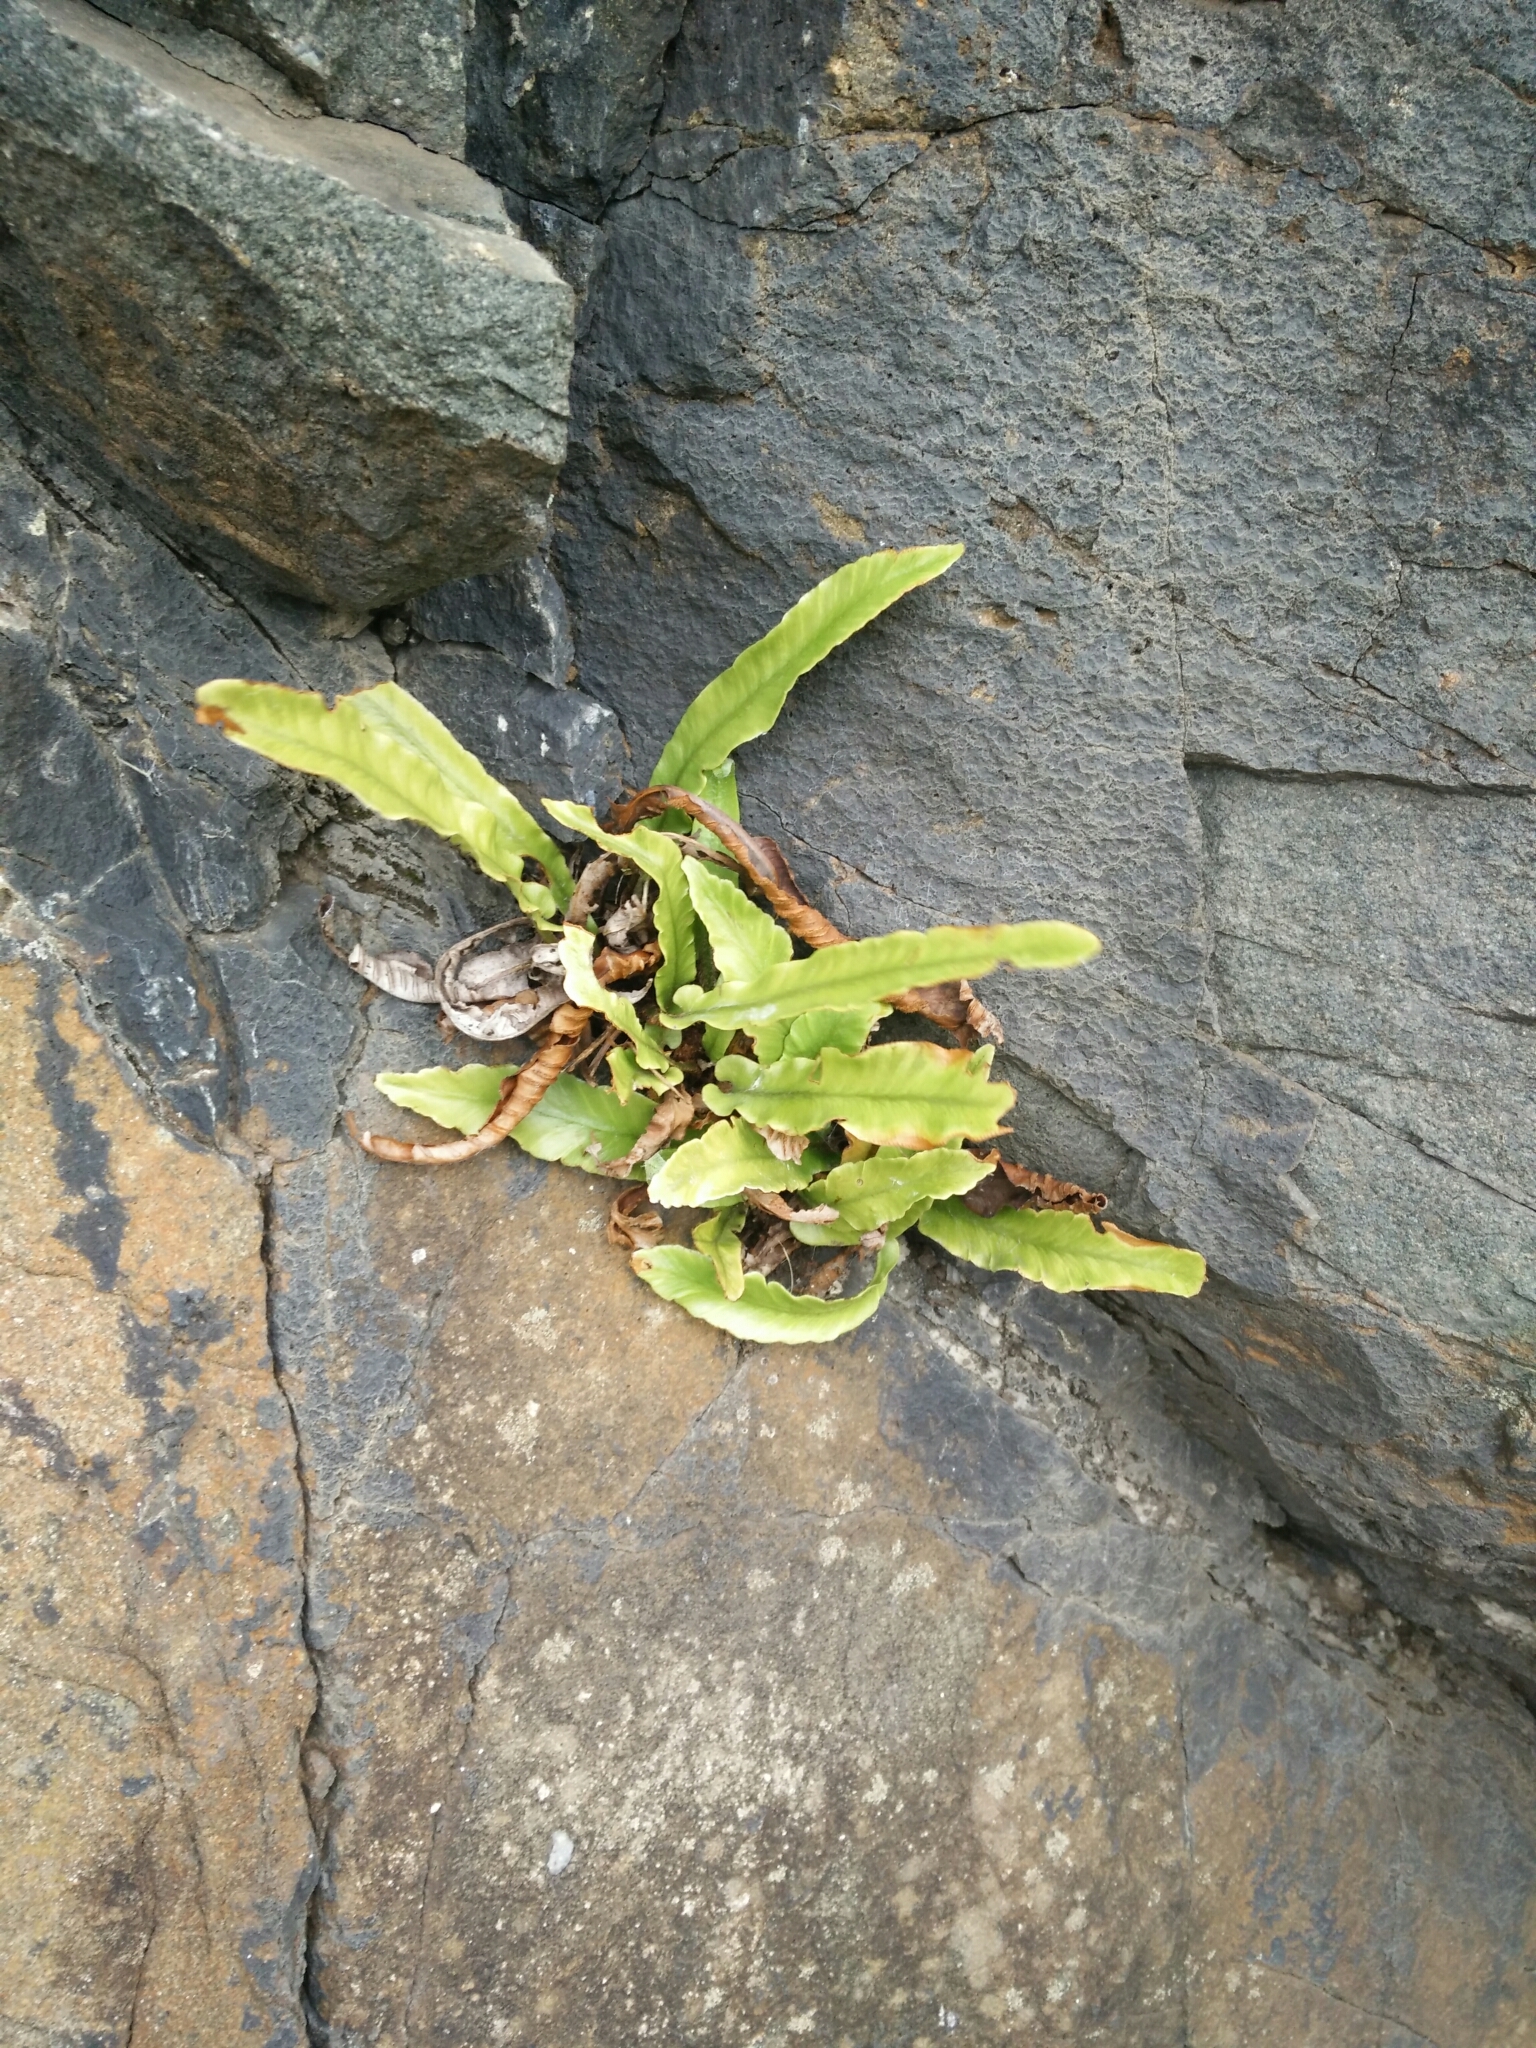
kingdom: Plantae
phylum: Tracheophyta
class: Polypodiopsida
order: Polypodiales
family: Aspleniaceae
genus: Asplenium
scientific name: Asplenium scolopendrium
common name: Hart's-tongue fern
